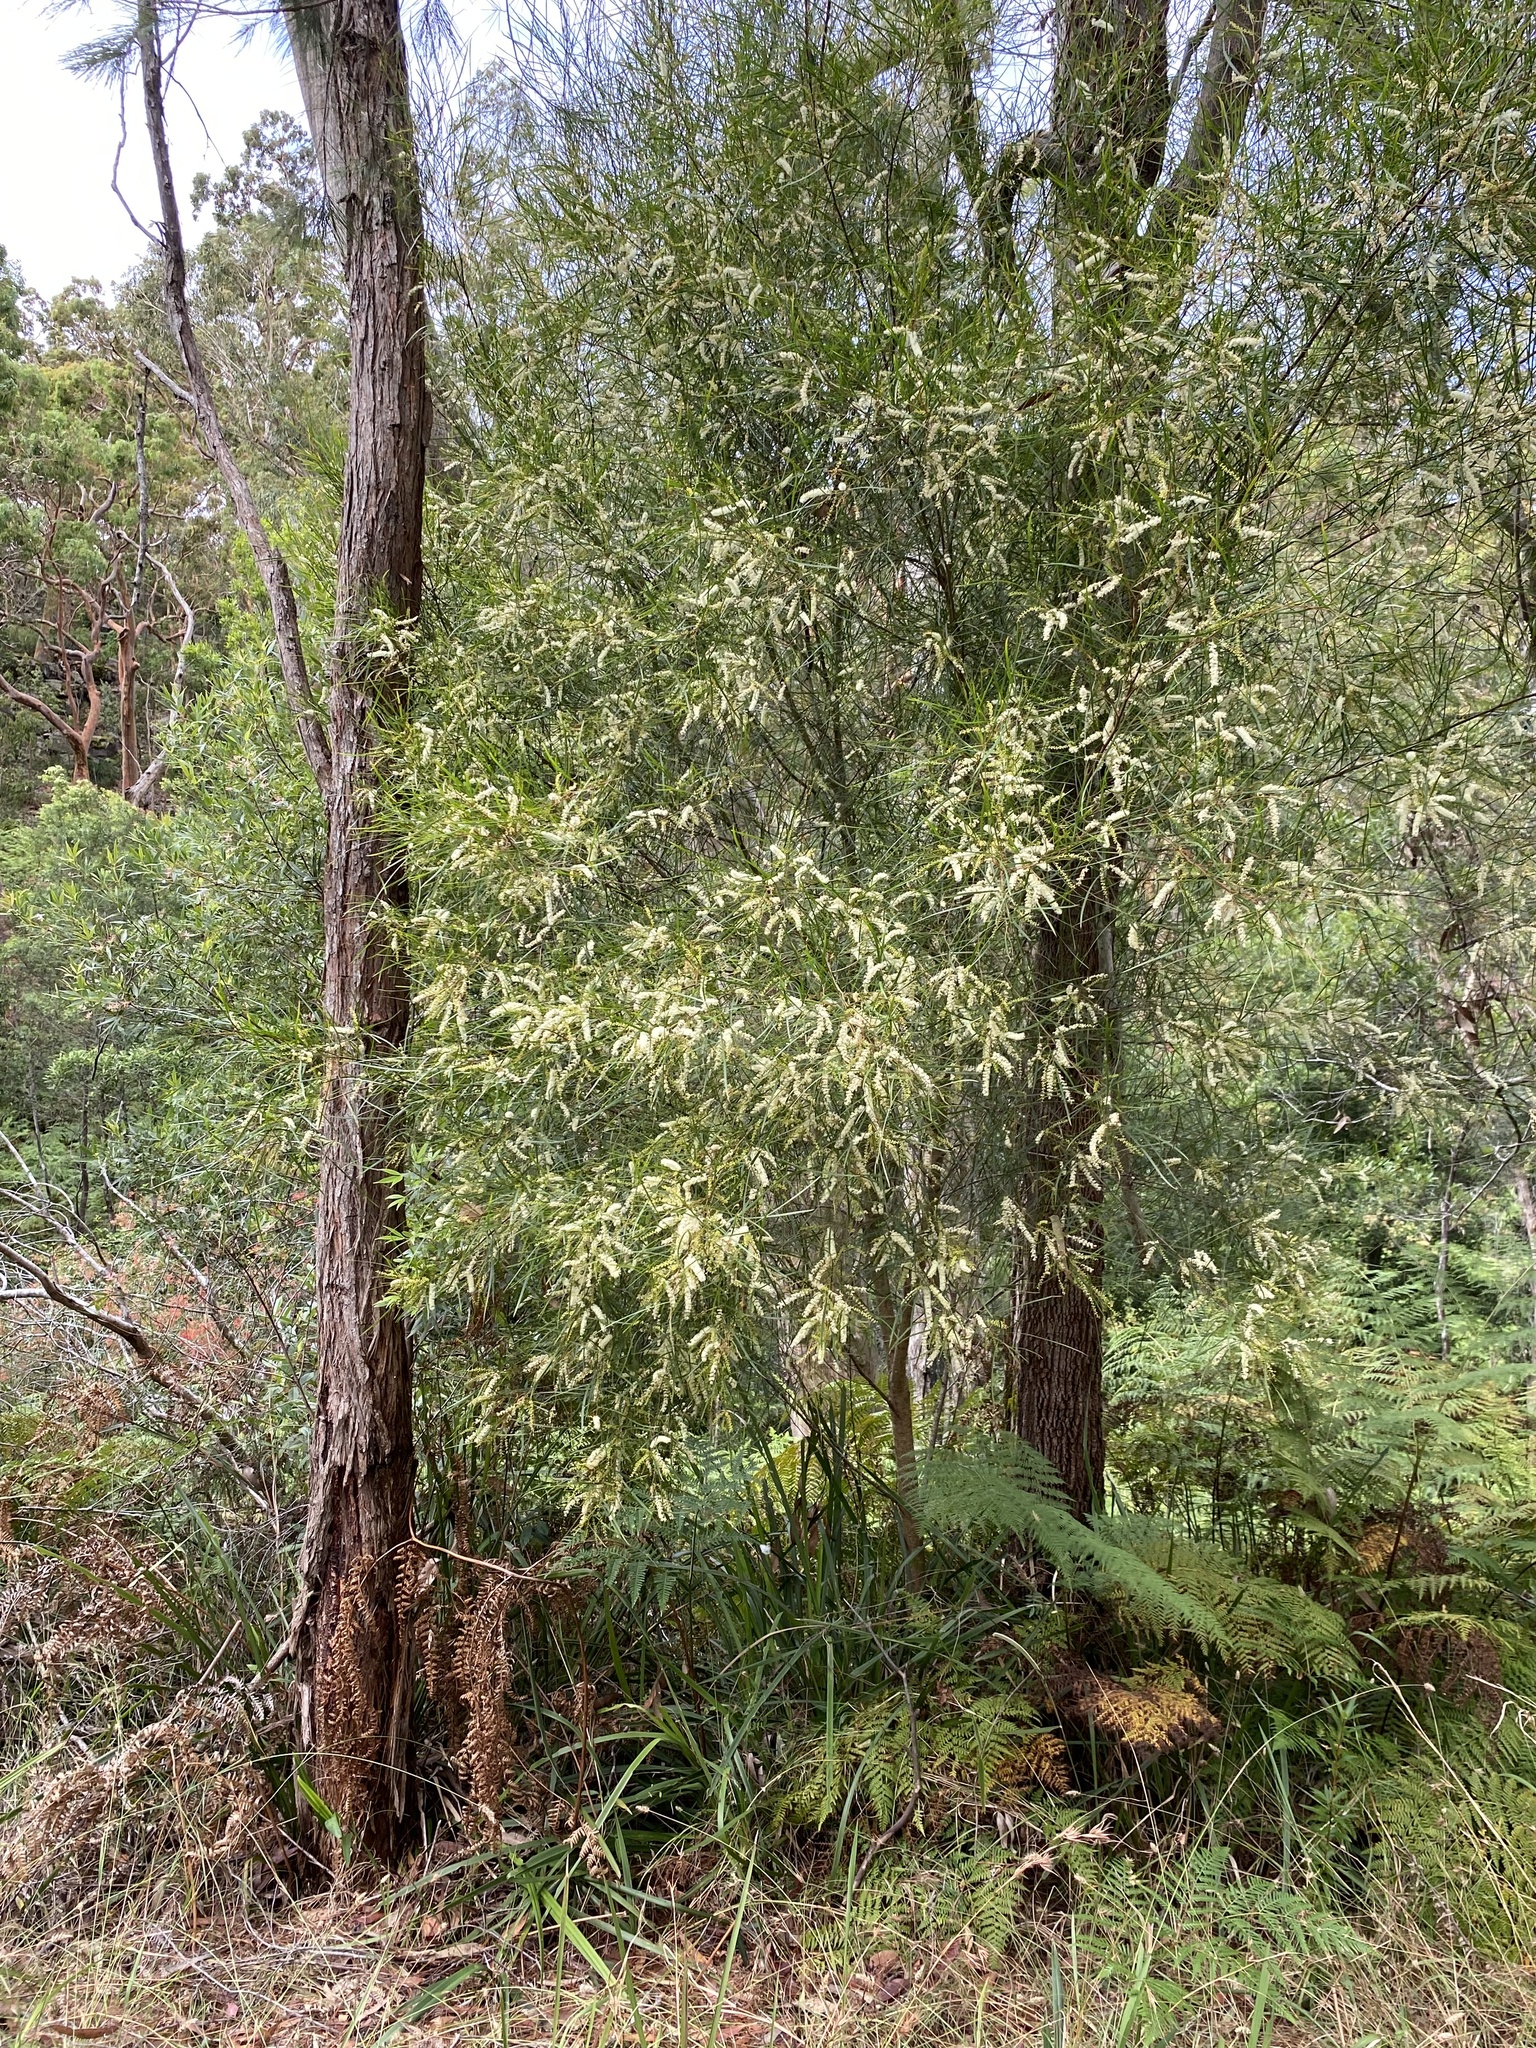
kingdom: Plantae
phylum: Tracheophyta
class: Magnoliopsida
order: Fabales
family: Fabaceae
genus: Acacia
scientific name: Acacia longissima
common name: Longleaf wattle
